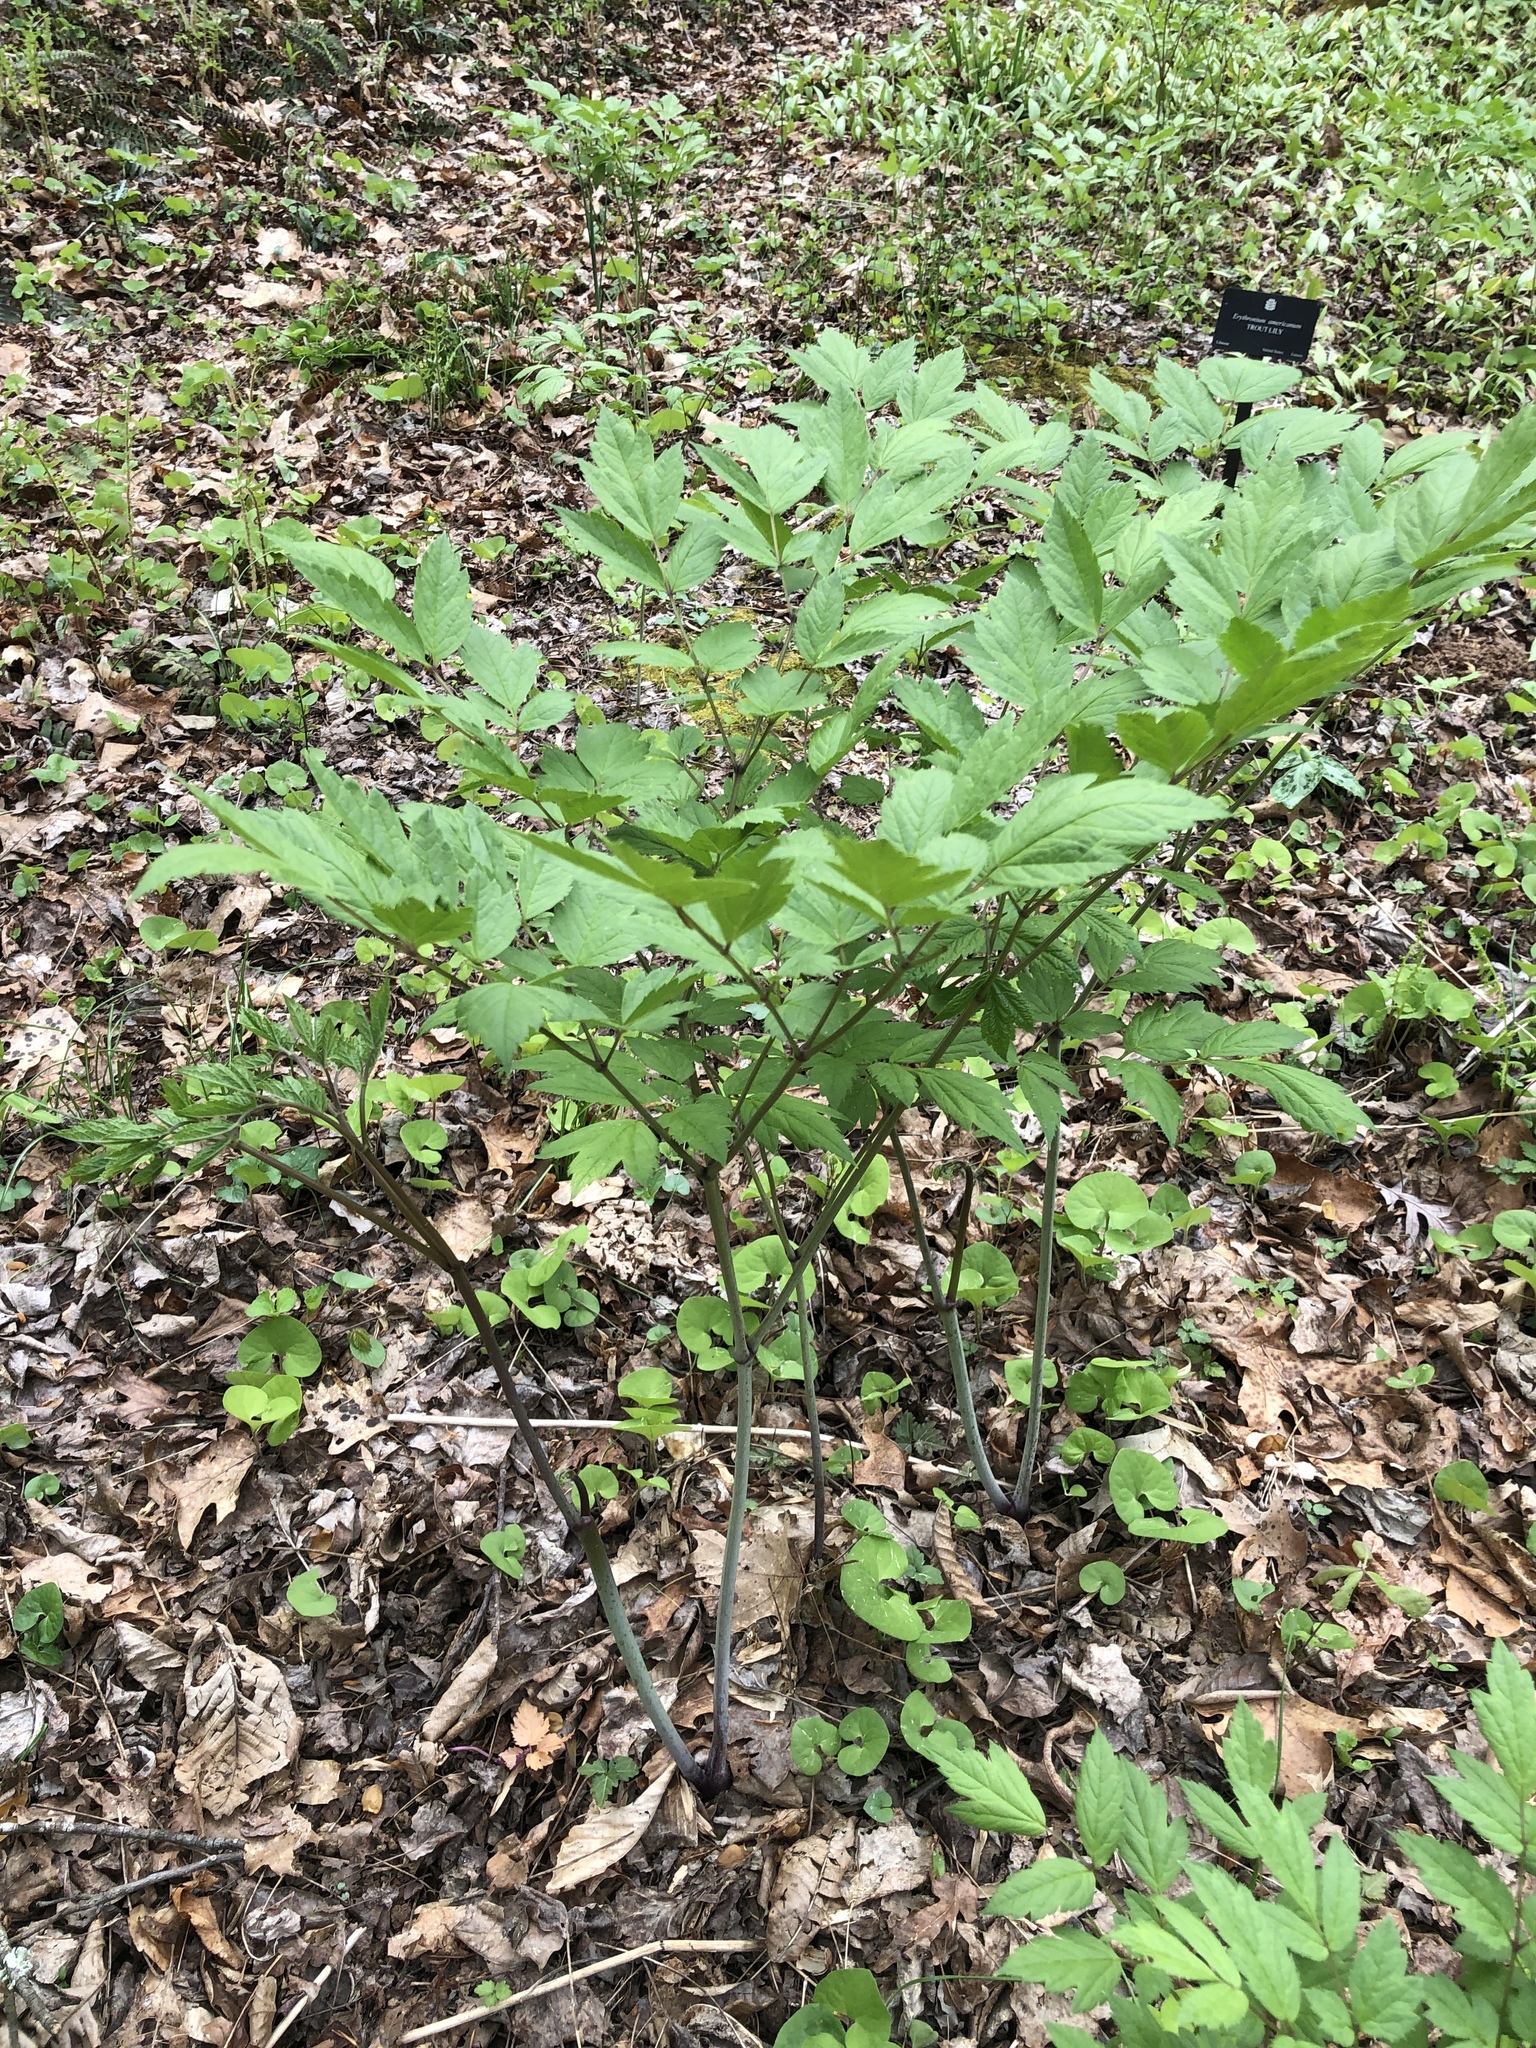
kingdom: Plantae
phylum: Tracheophyta
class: Magnoliopsida
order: Ranunculales
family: Ranunculaceae
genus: Actaea
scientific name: Actaea racemosa
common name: Black cohosh
